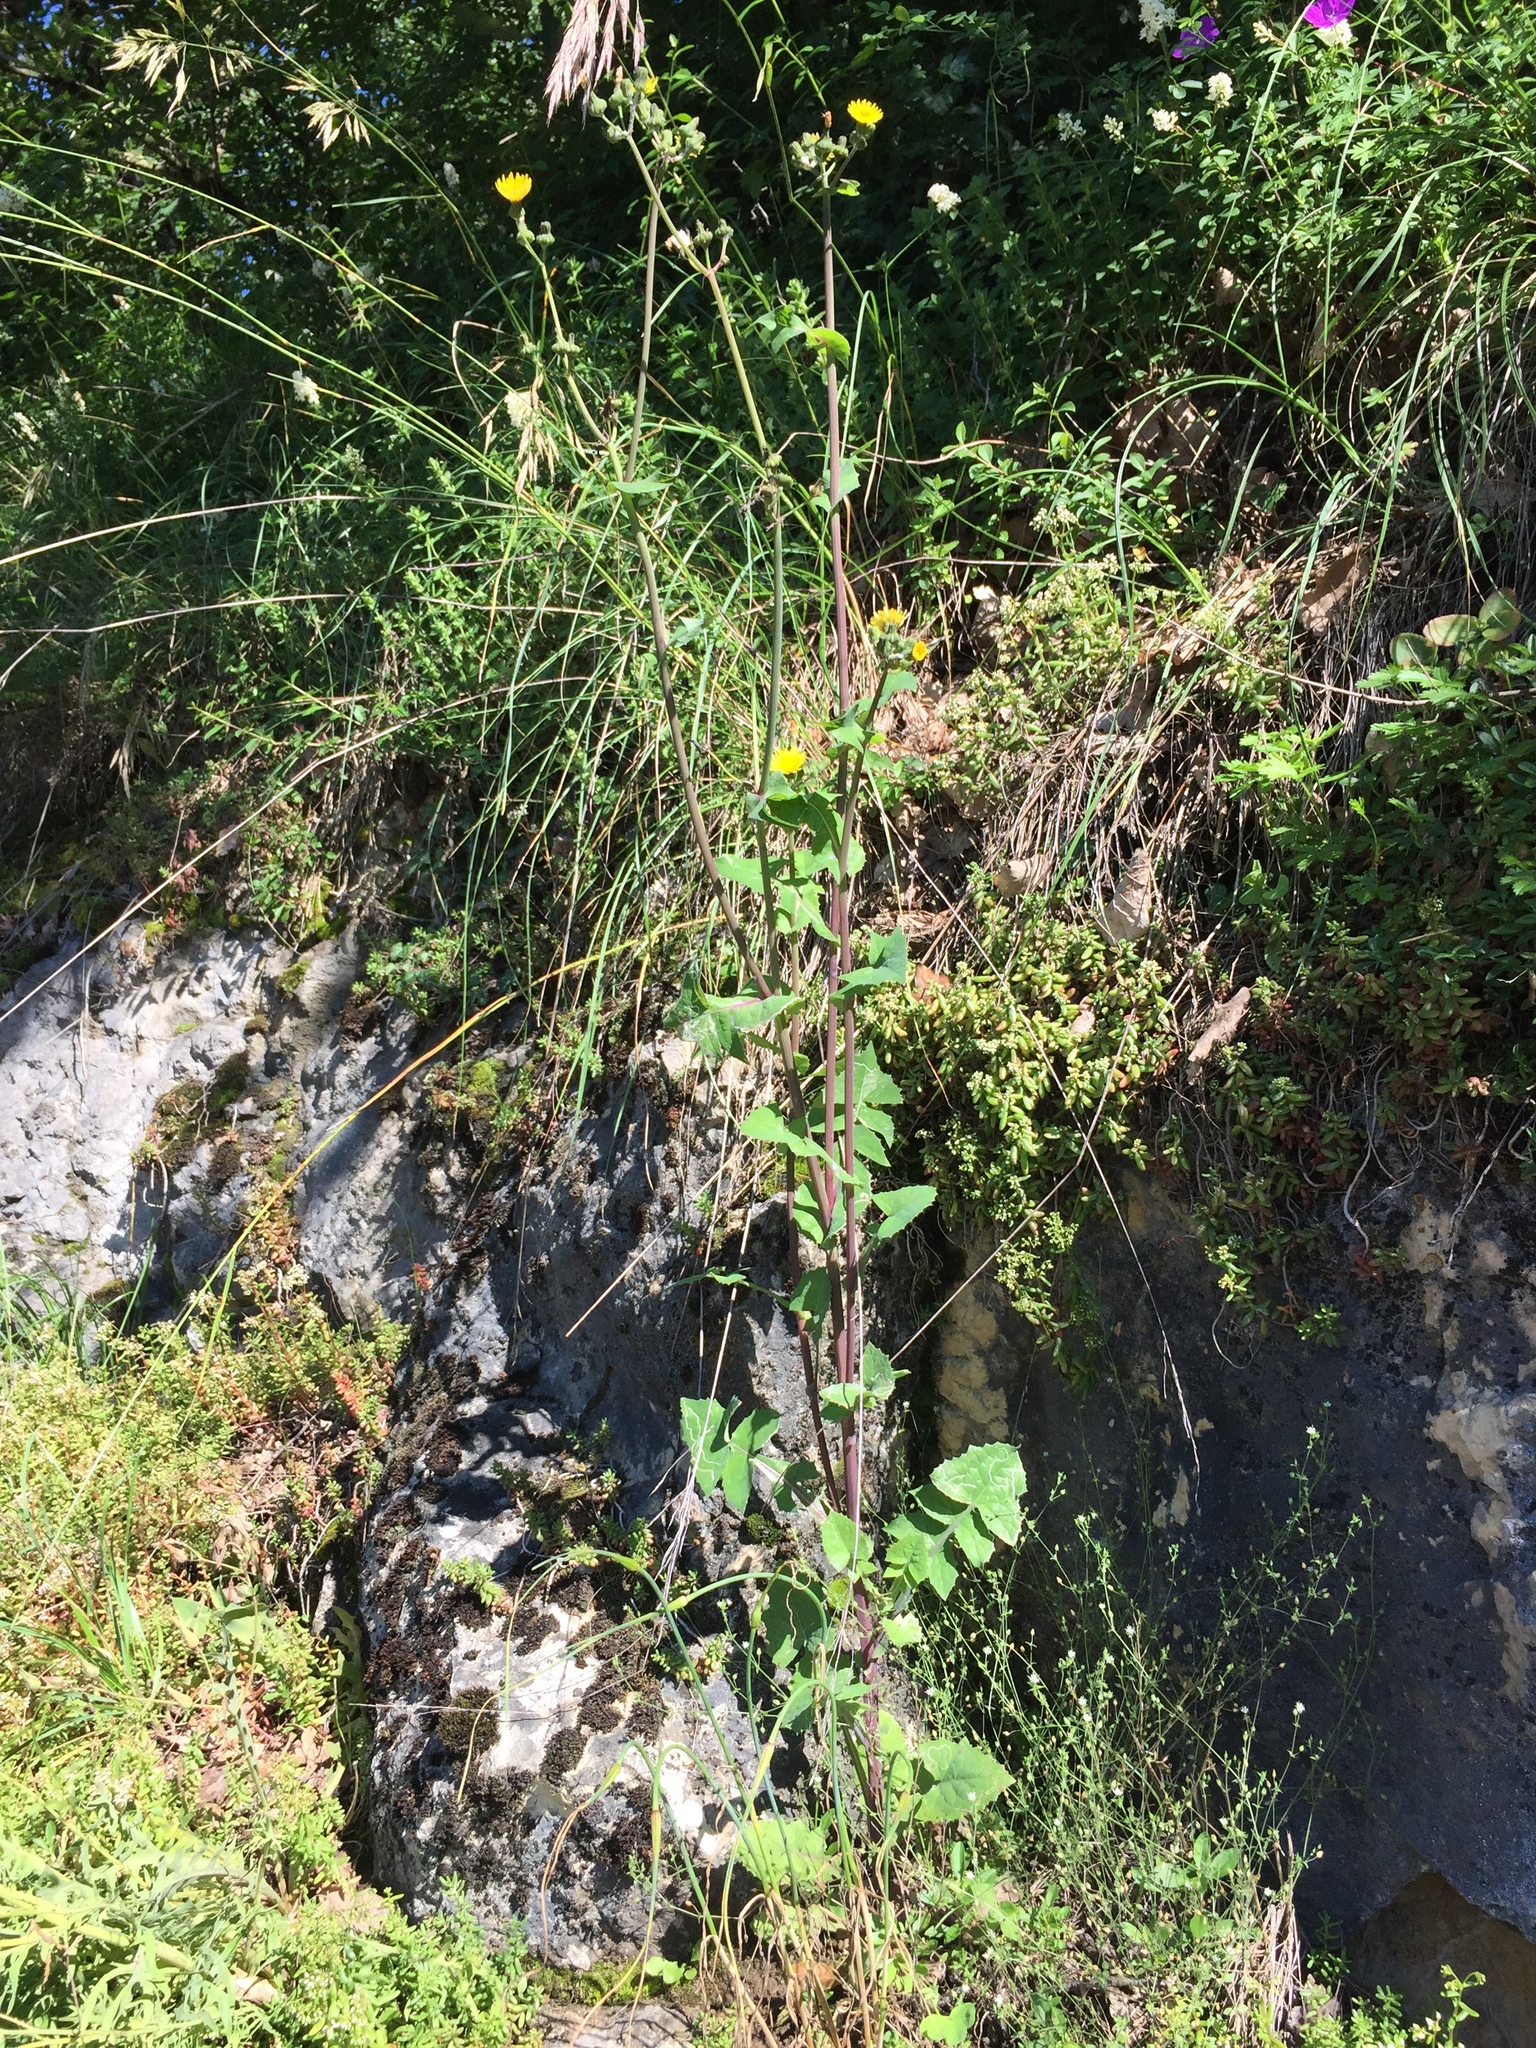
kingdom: Plantae
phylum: Tracheophyta
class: Magnoliopsida
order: Asterales
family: Asteraceae
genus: Sonchus
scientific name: Sonchus oleraceus
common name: Common sowthistle
